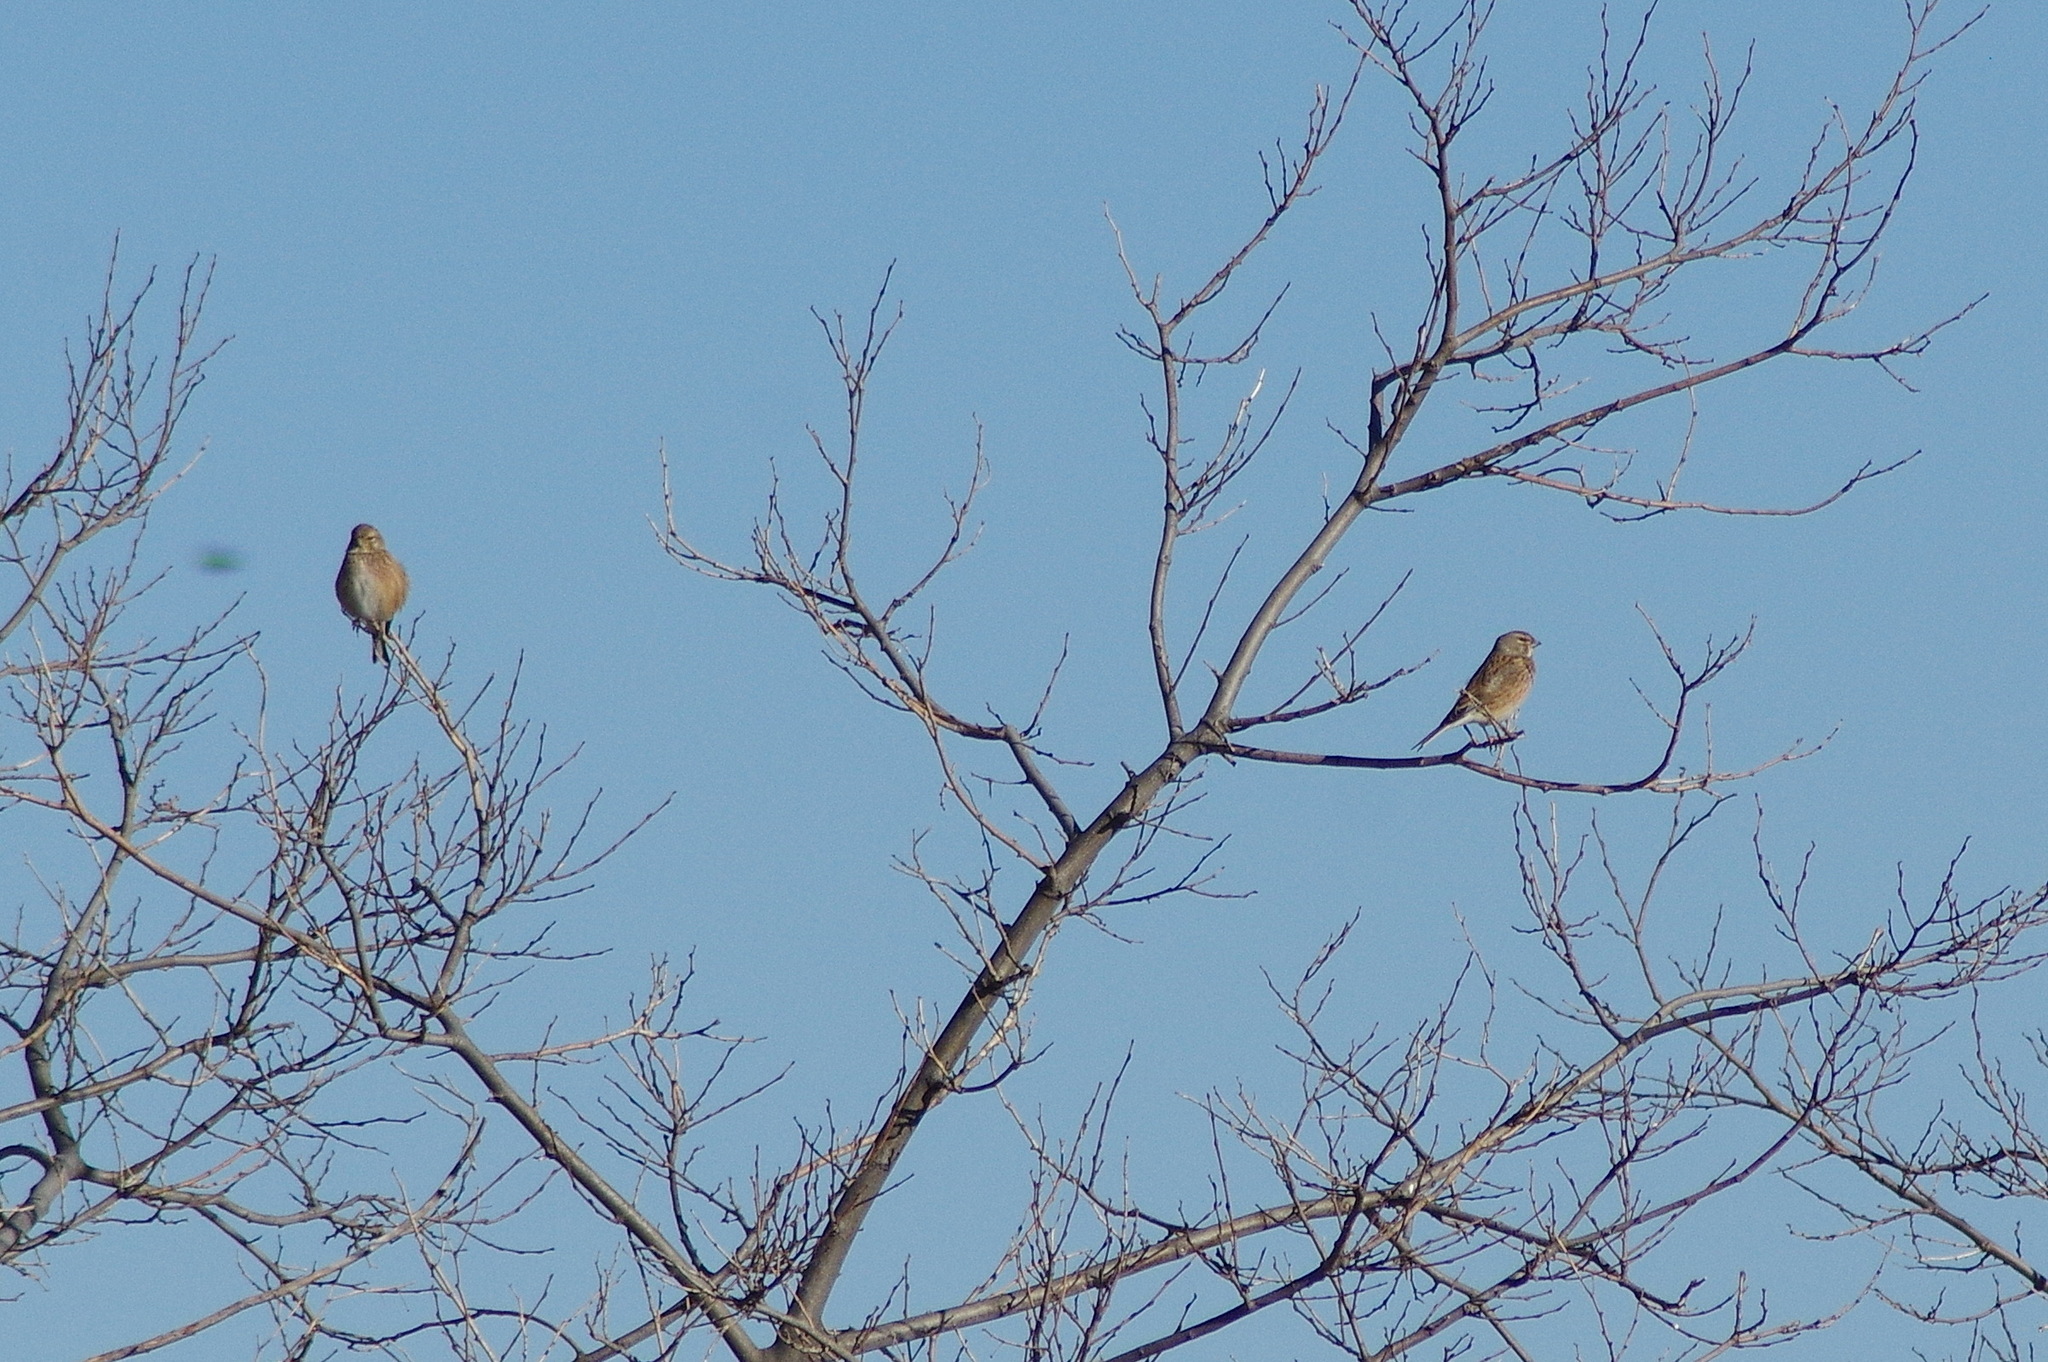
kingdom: Animalia
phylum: Chordata
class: Aves
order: Passeriformes
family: Fringillidae
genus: Linaria
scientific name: Linaria cannabina
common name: Common linnet
